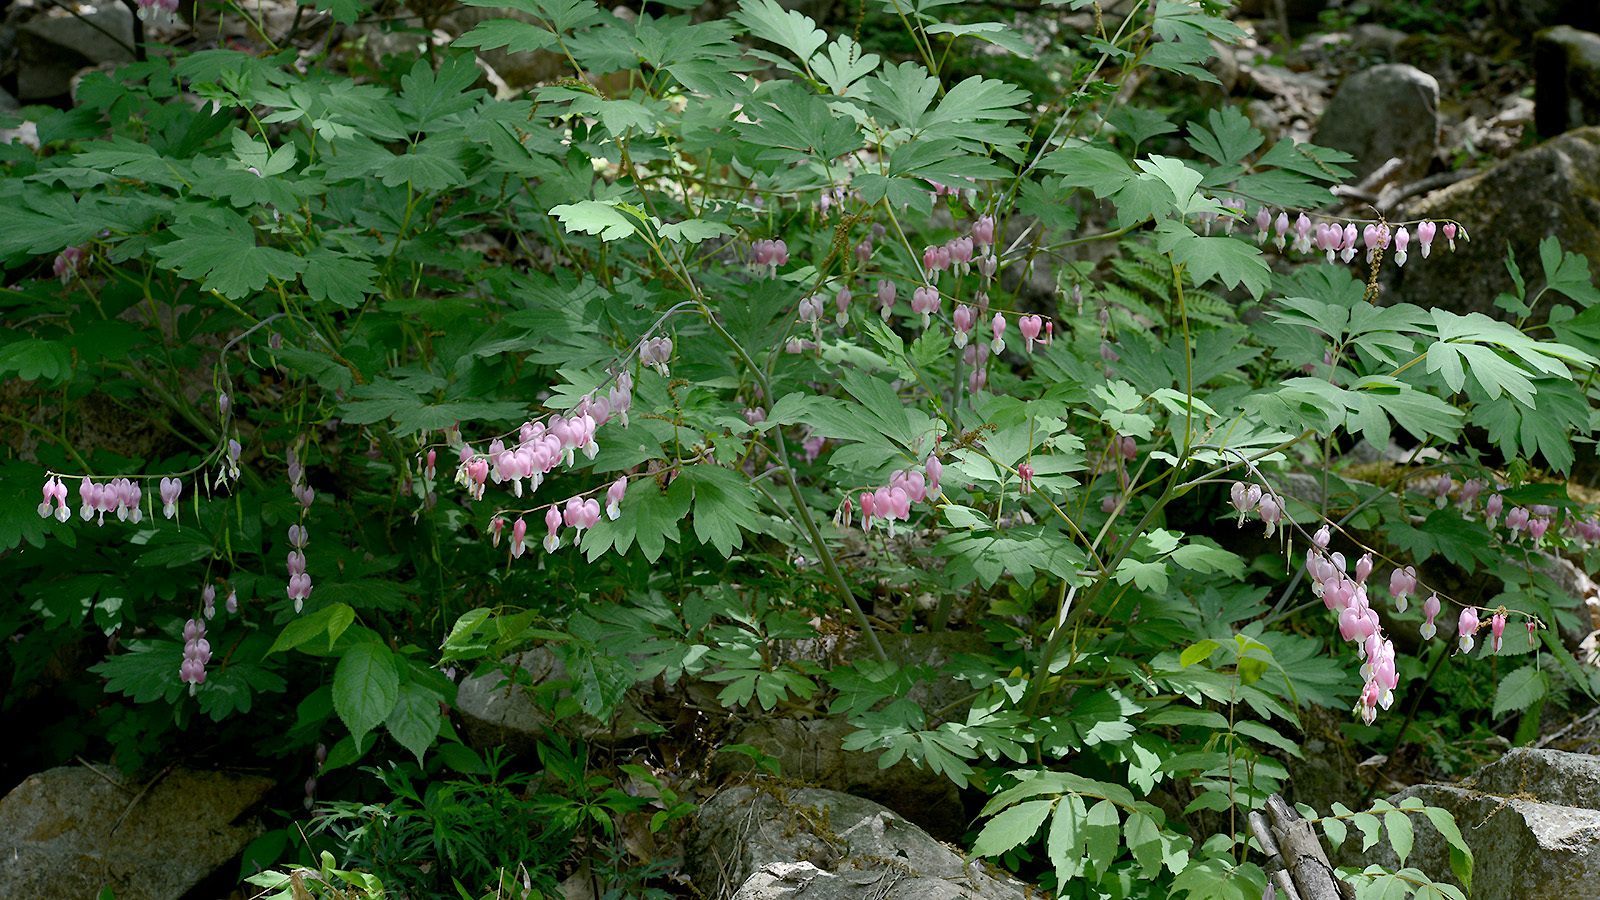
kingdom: Plantae
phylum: Tracheophyta
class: Magnoliopsida
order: Ranunculales
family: Papaveraceae
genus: Lamprocapnos
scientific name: Lamprocapnos spectabilis
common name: Asian bleeding-heart
